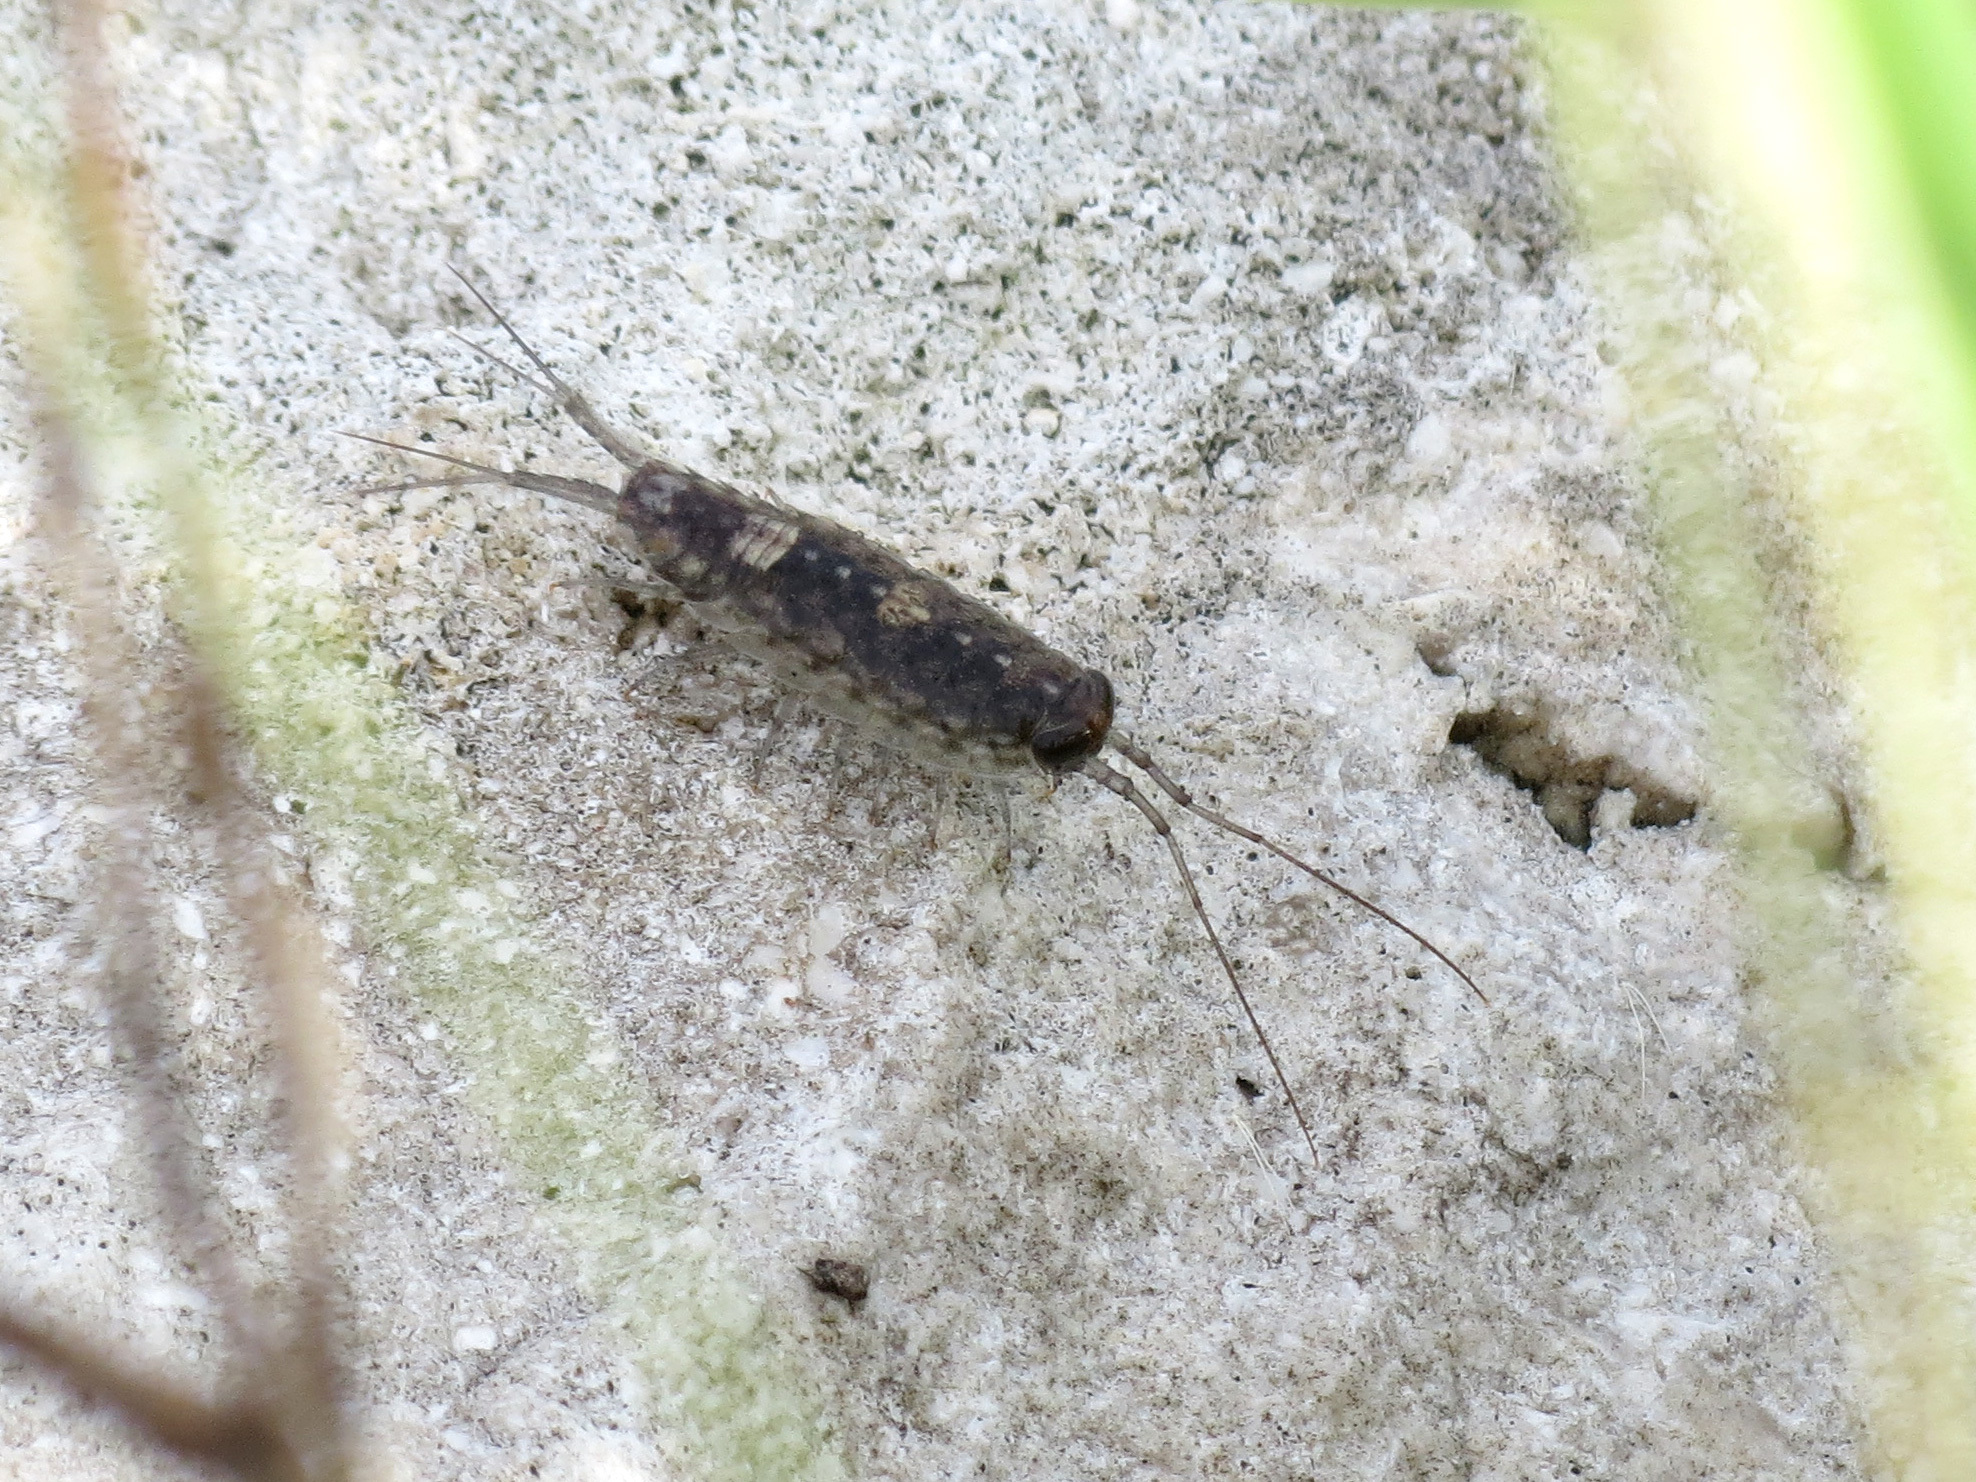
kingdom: Animalia
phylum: Arthropoda
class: Malacostraca
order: Isopoda
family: Ligiidae
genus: Ligia
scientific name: Ligia exotica
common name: Wharf roach
